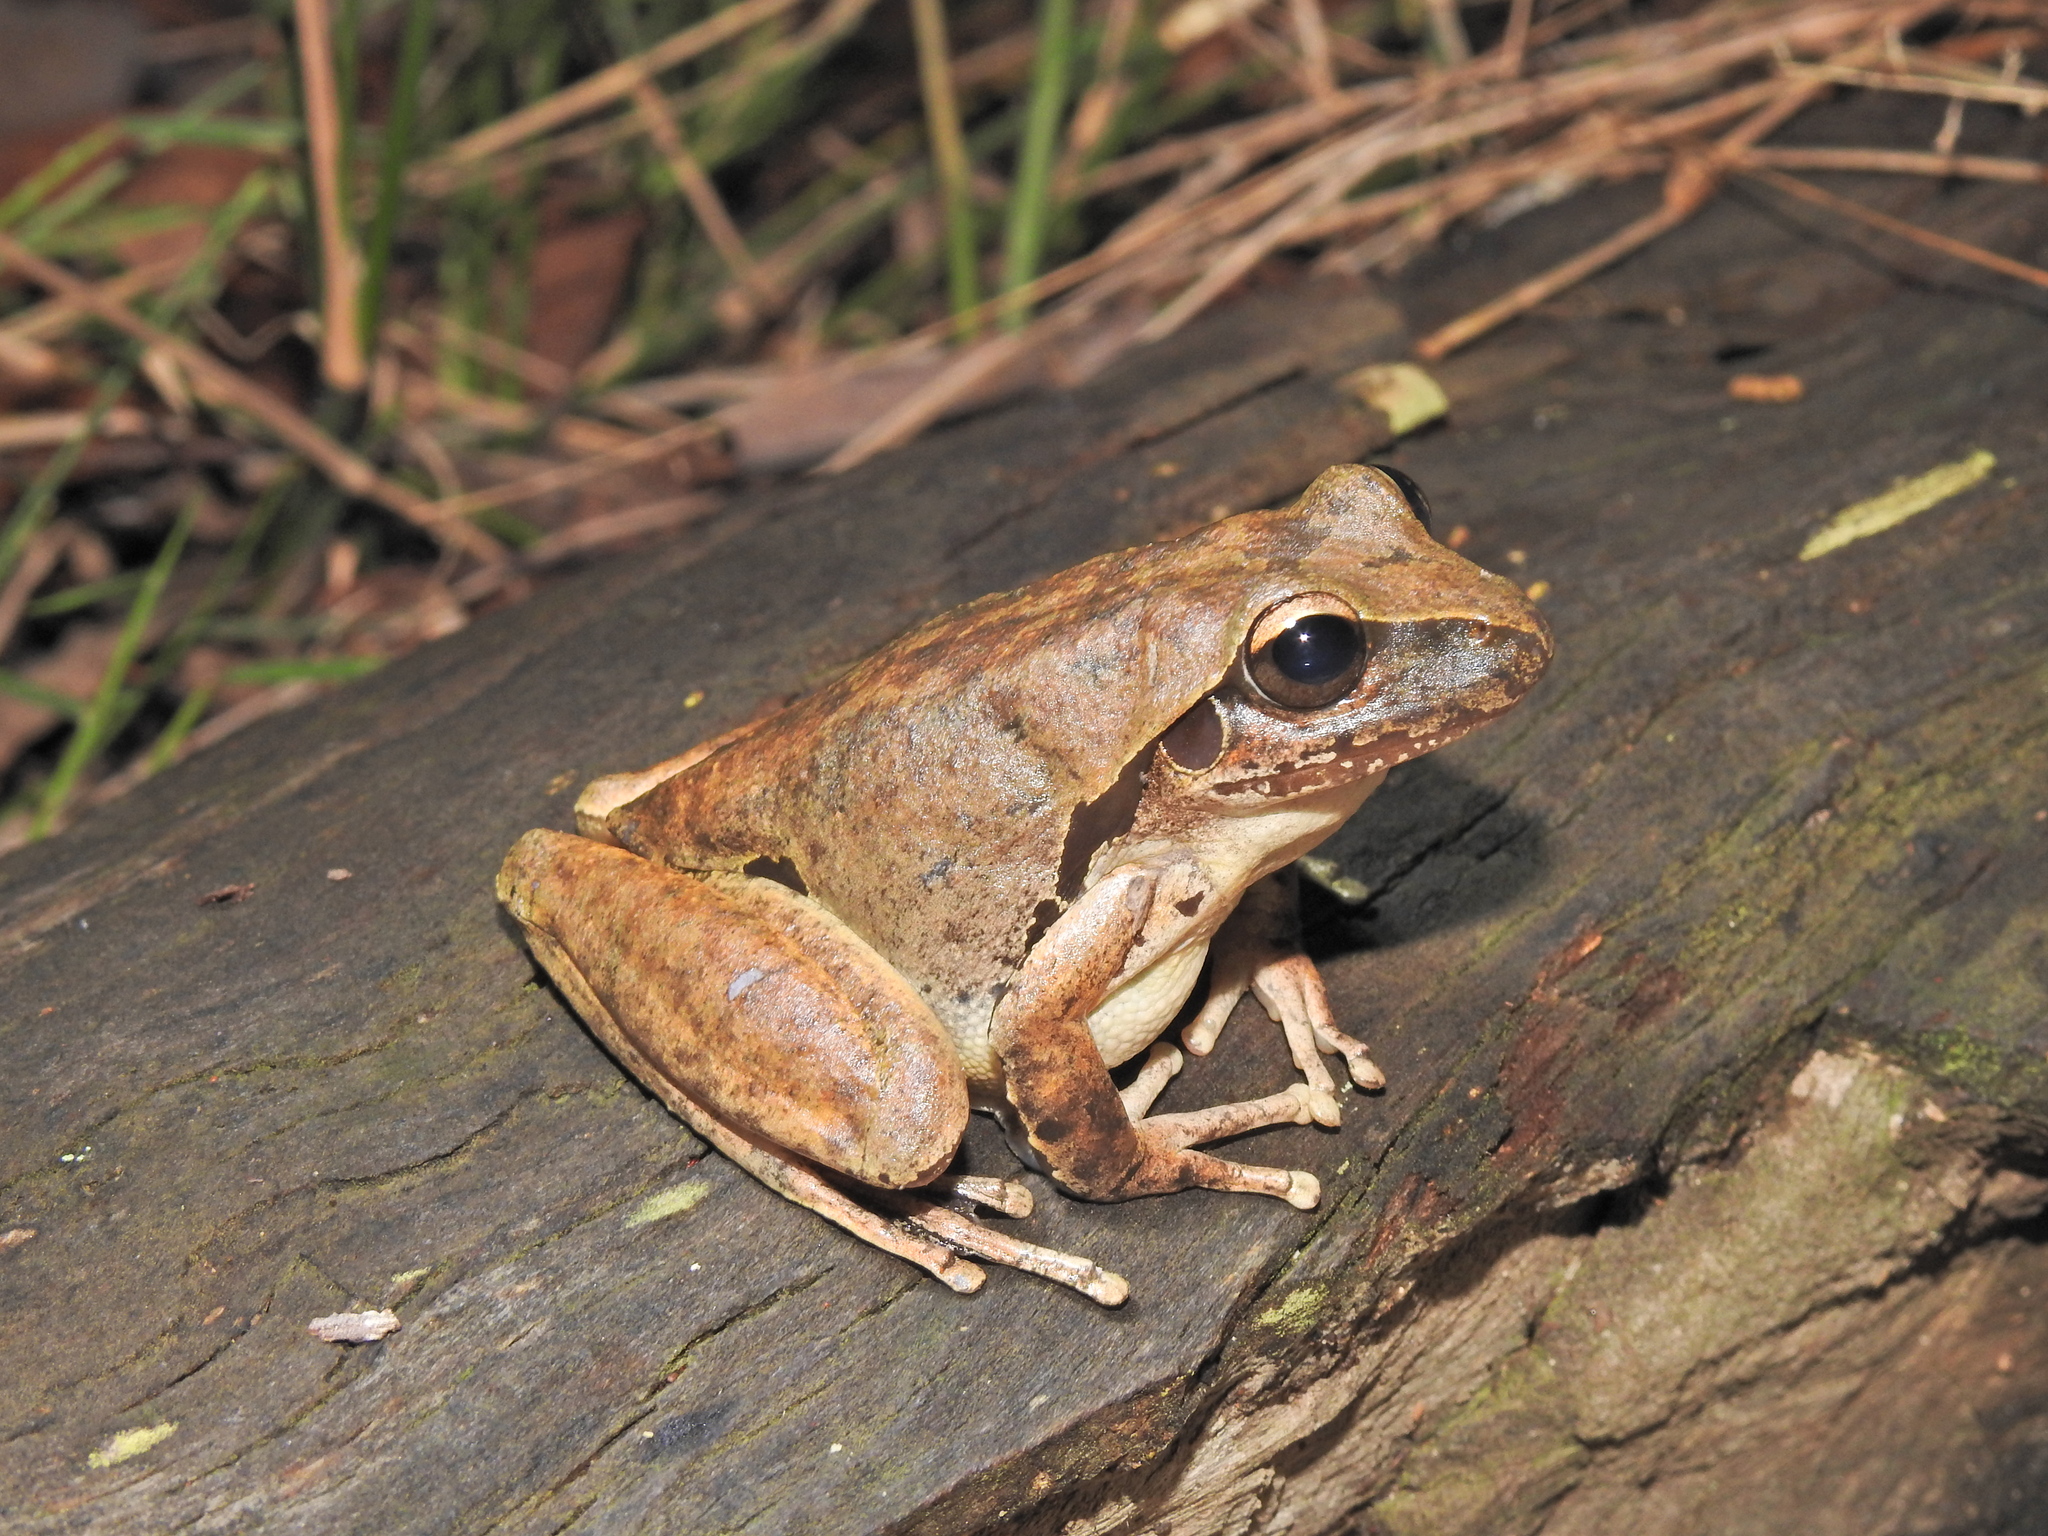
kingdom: Animalia
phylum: Chordata
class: Amphibia
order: Anura
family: Pelodryadidae
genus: Ranoidea
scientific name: Ranoidea wilcoxii
